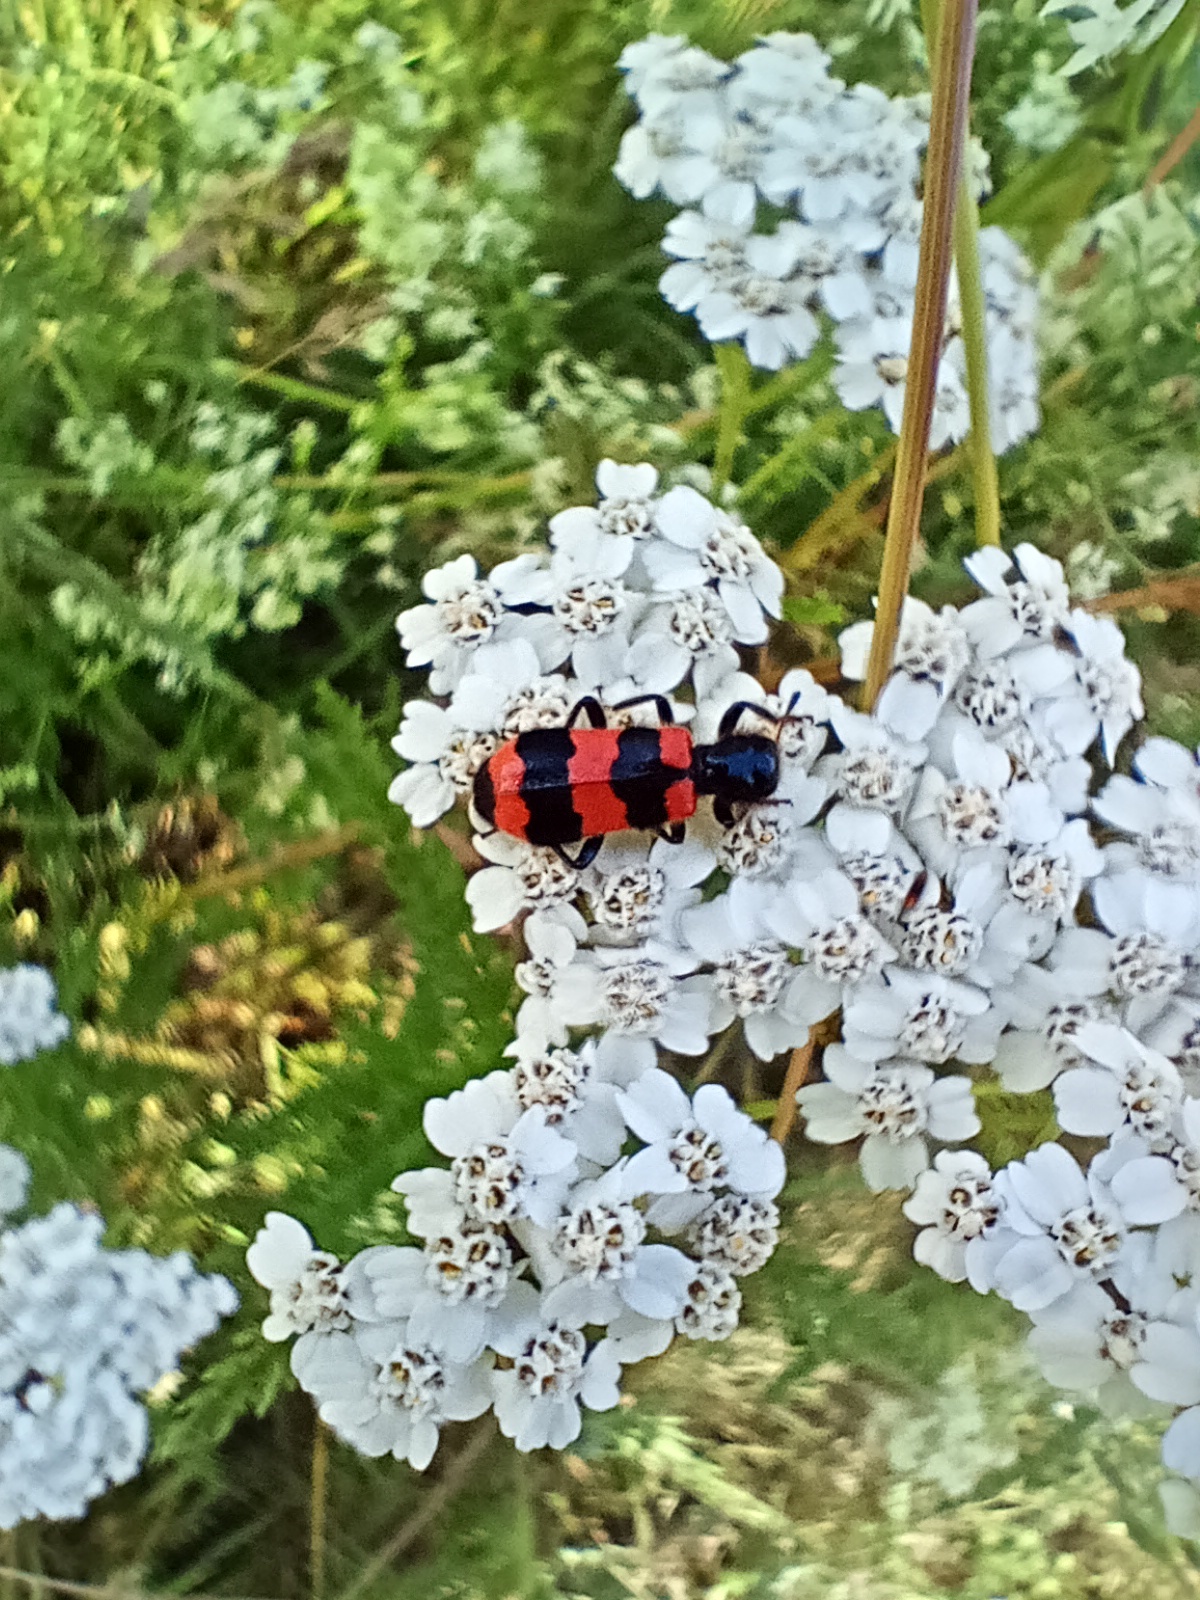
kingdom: Animalia
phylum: Arthropoda
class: Insecta
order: Coleoptera
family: Cleridae
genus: Trichodes
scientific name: Trichodes apiarius
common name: Bee-eating beetle
